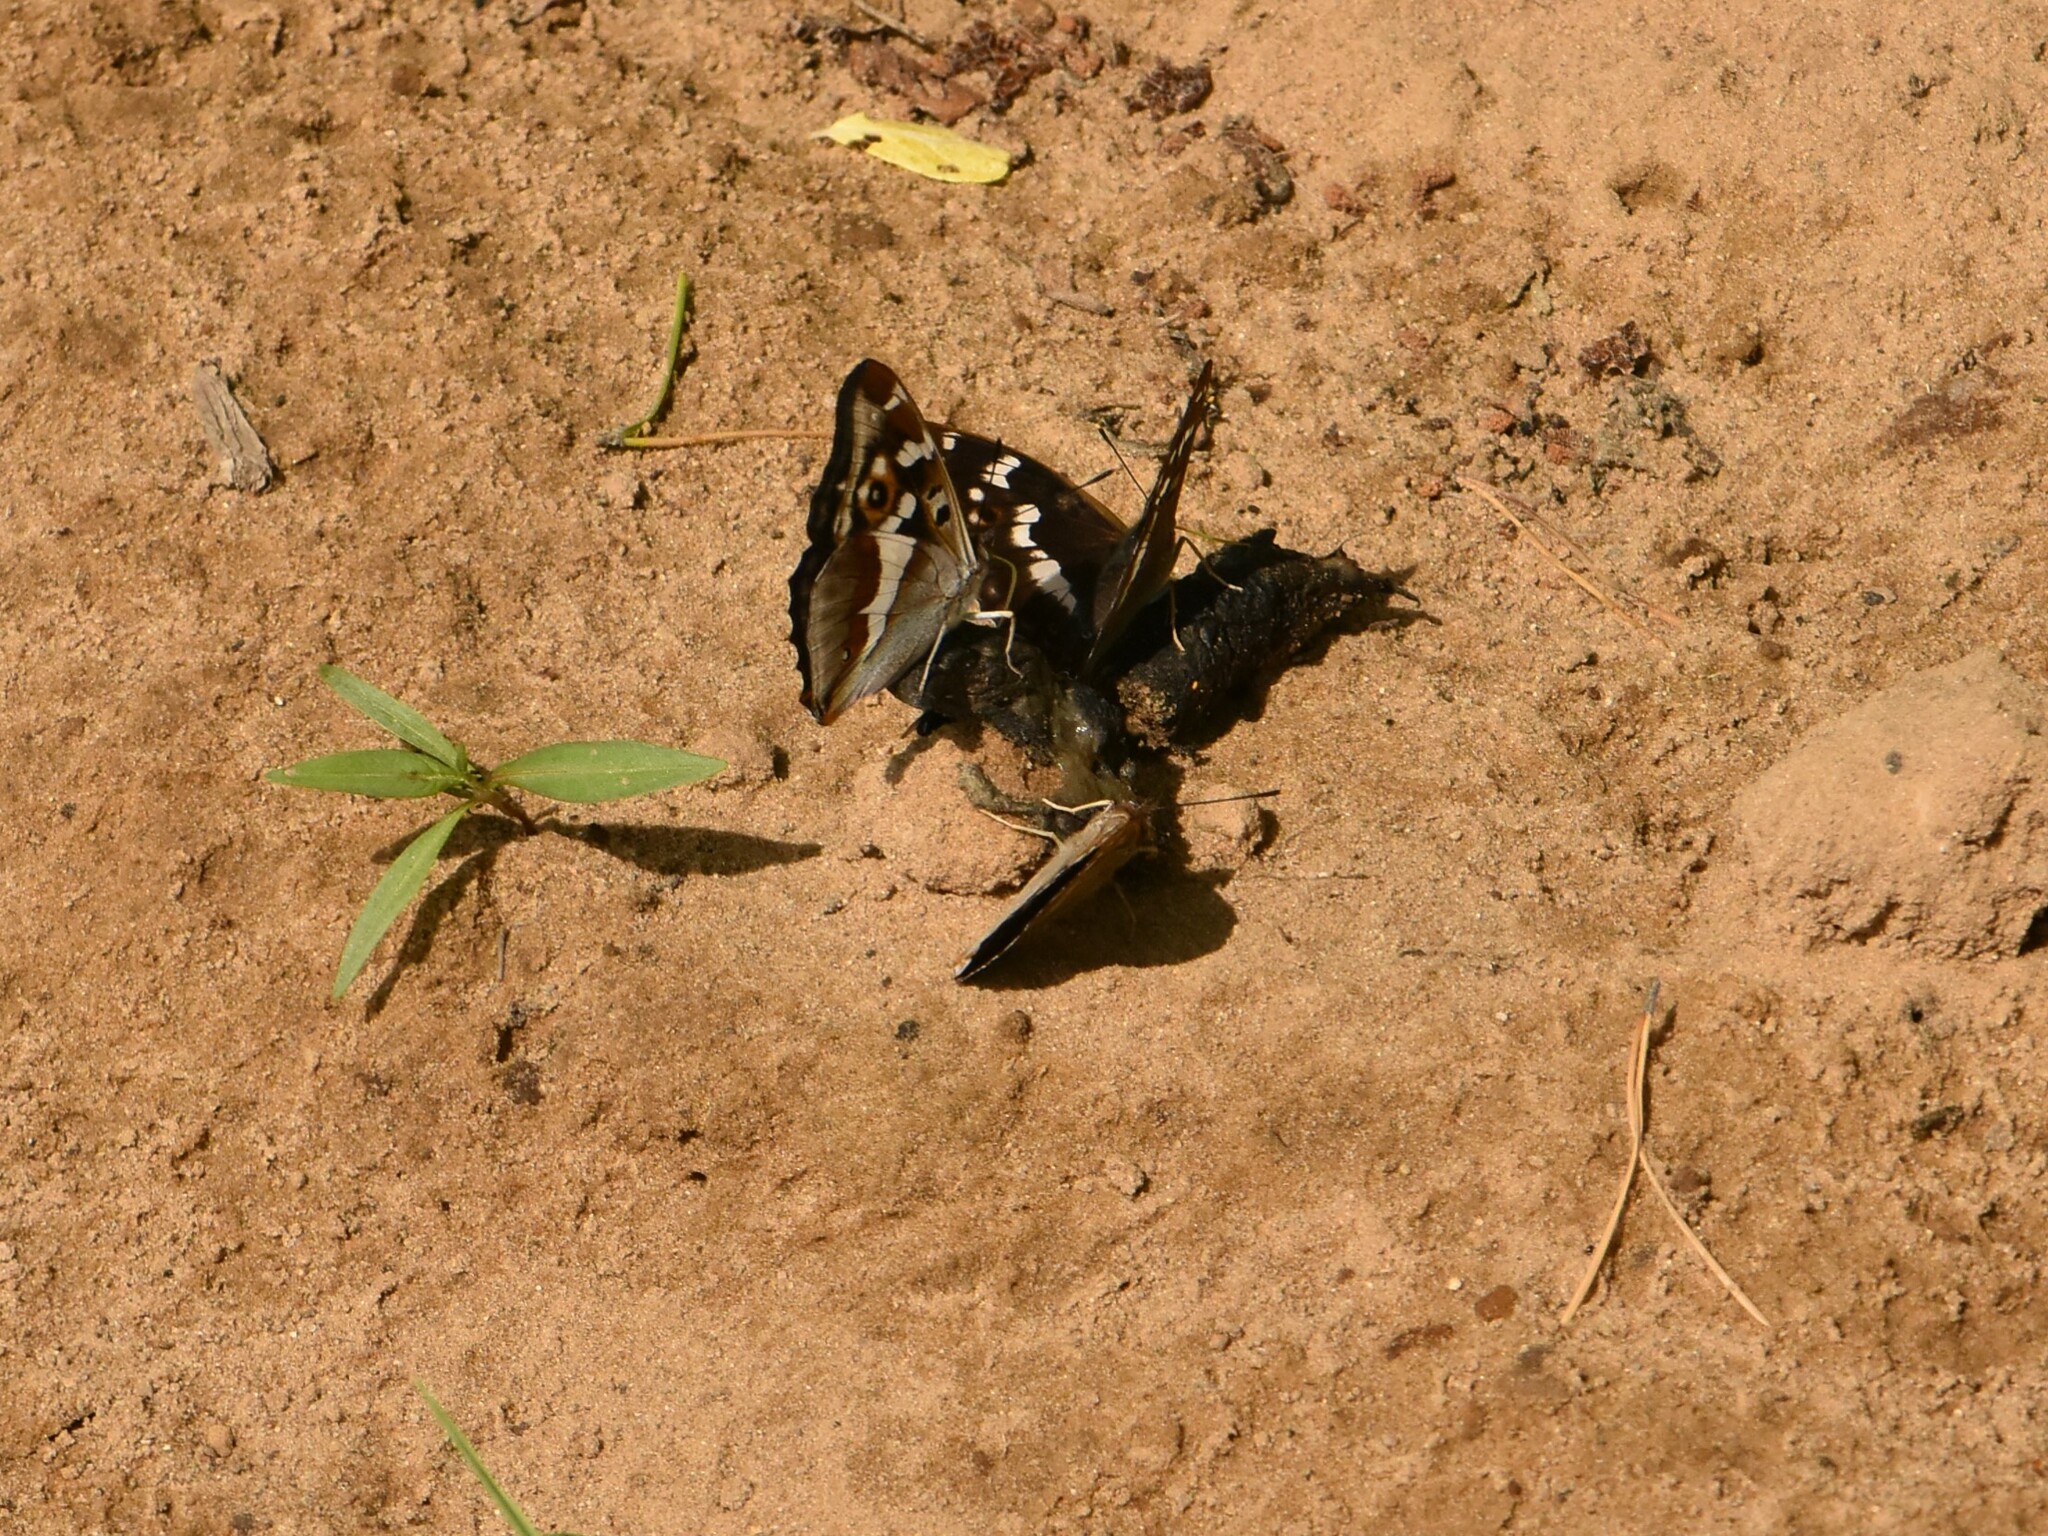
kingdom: Animalia
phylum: Arthropoda
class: Insecta
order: Lepidoptera
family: Nymphalidae
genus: Apatura
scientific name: Apatura iris
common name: Purple emperor
